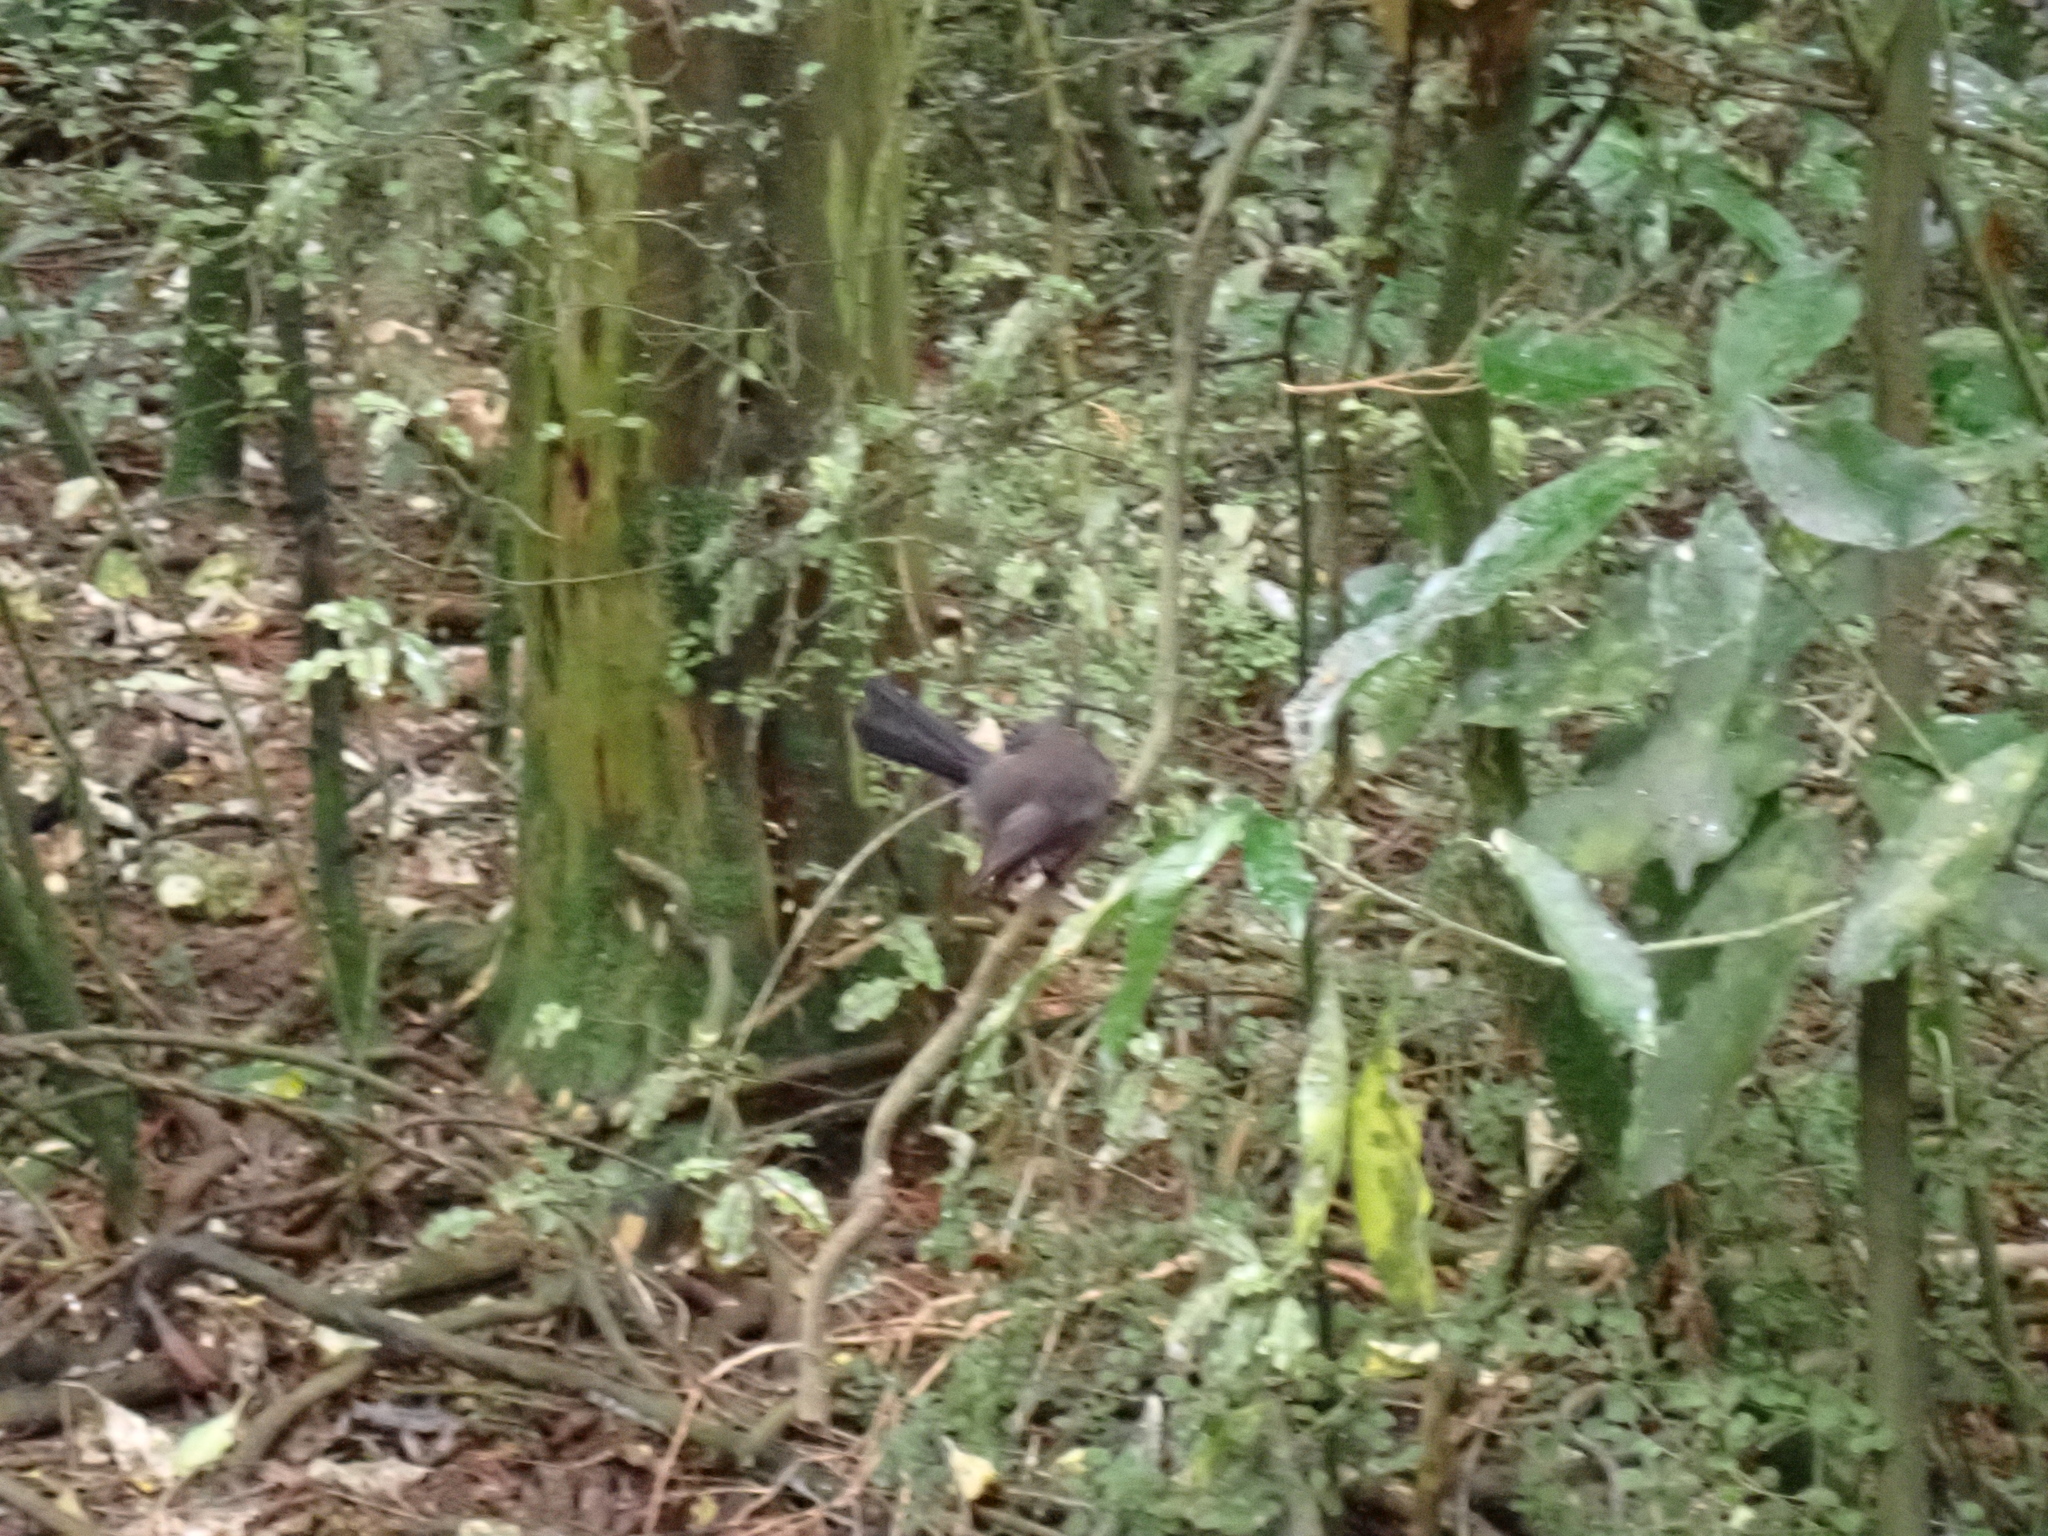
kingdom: Animalia
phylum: Chordata
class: Aves
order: Passeriformes
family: Rhipiduridae
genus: Rhipidura
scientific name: Rhipidura fuliginosa
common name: New zealand fantail
